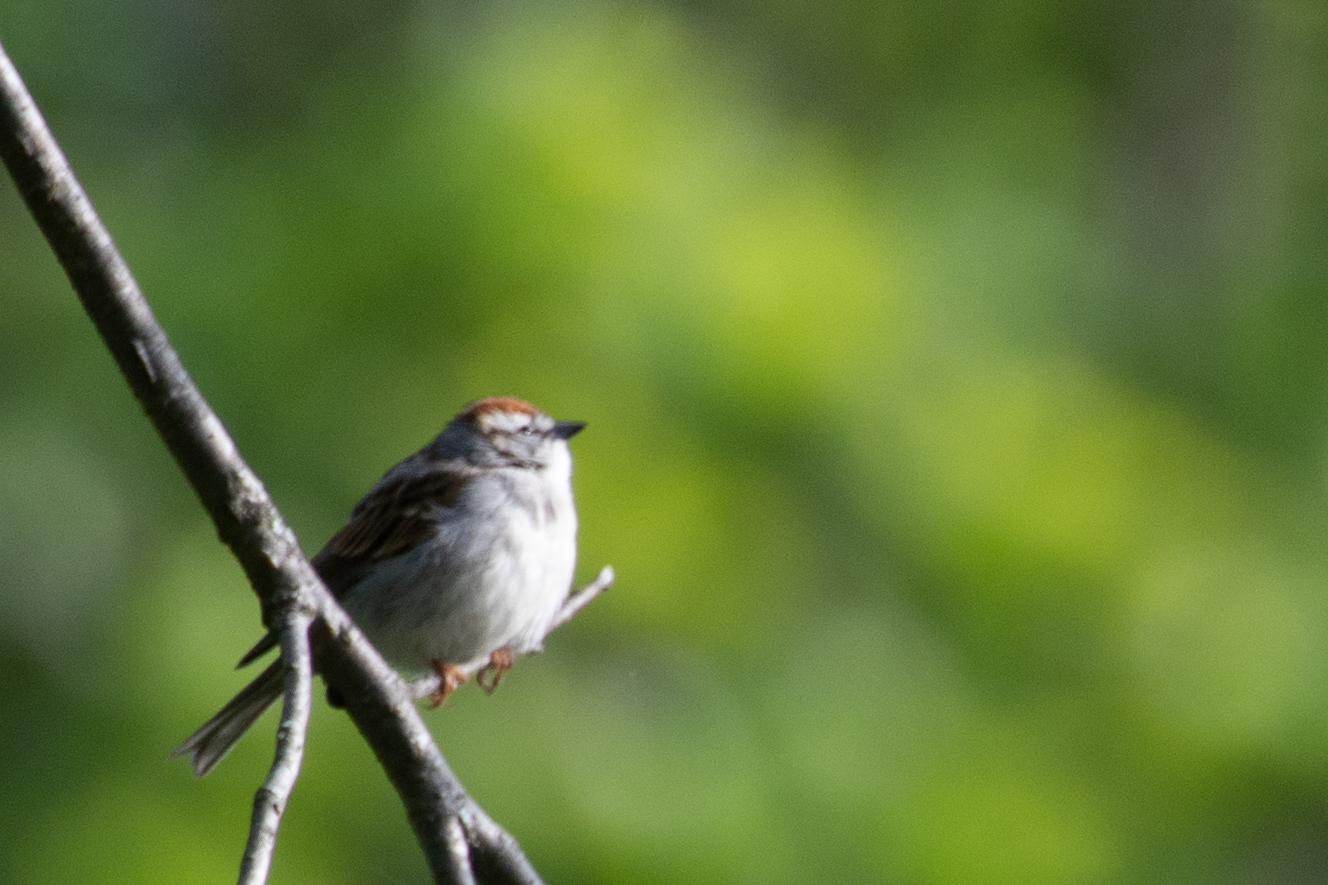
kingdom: Animalia
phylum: Chordata
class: Aves
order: Passeriformes
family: Passerellidae
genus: Spizella
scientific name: Spizella passerina
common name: Chipping sparrow
